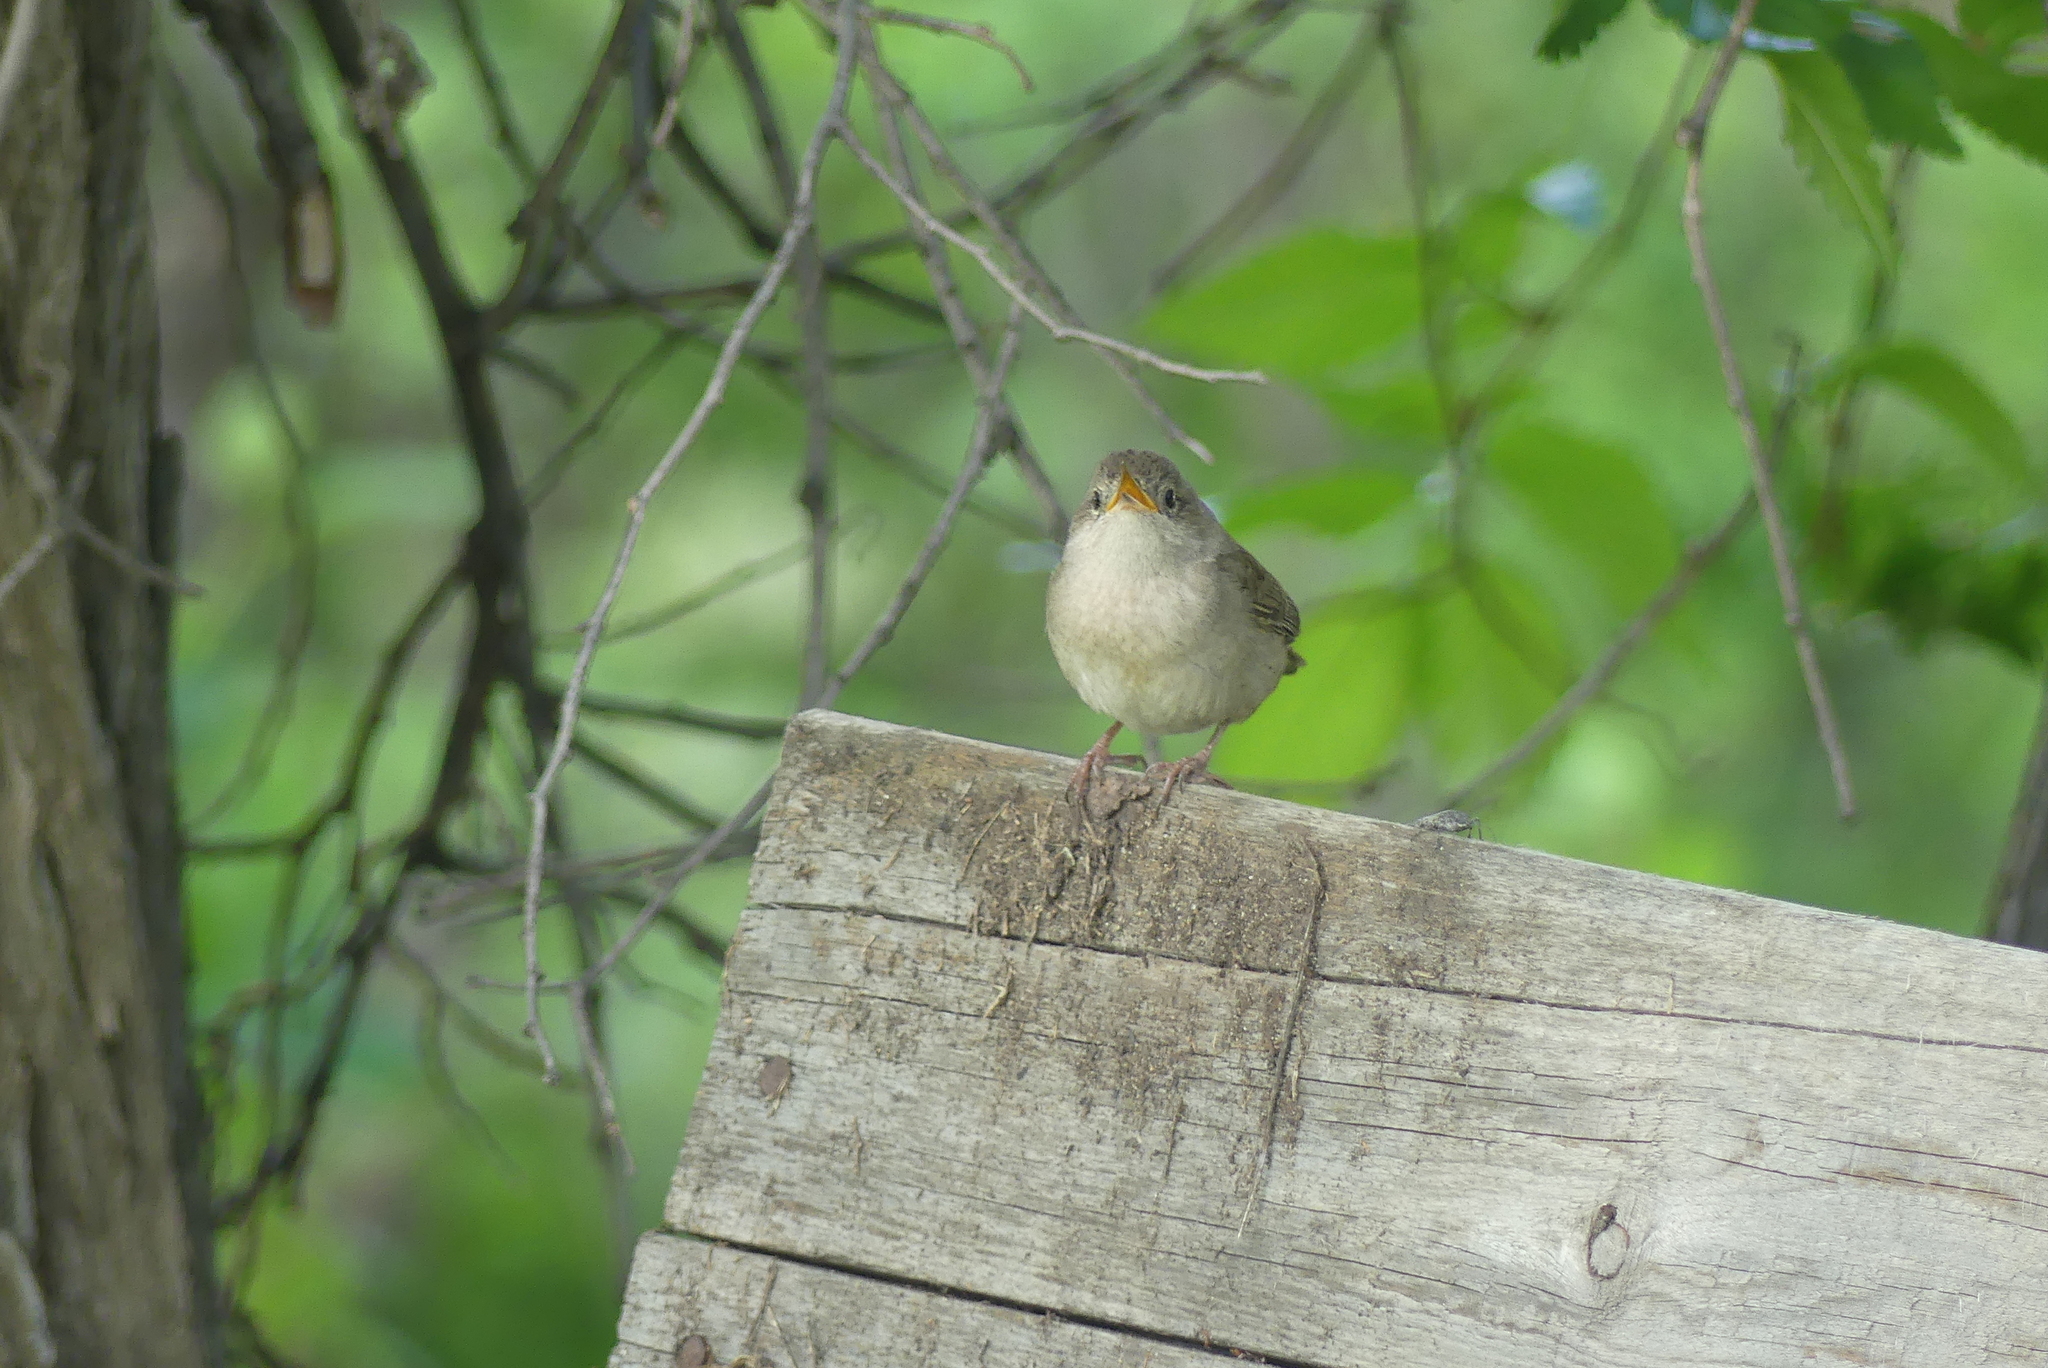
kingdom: Animalia
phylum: Chordata
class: Aves
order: Passeriformes
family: Troglodytidae
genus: Troglodytes
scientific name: Troglodytes aedon
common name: House wren
